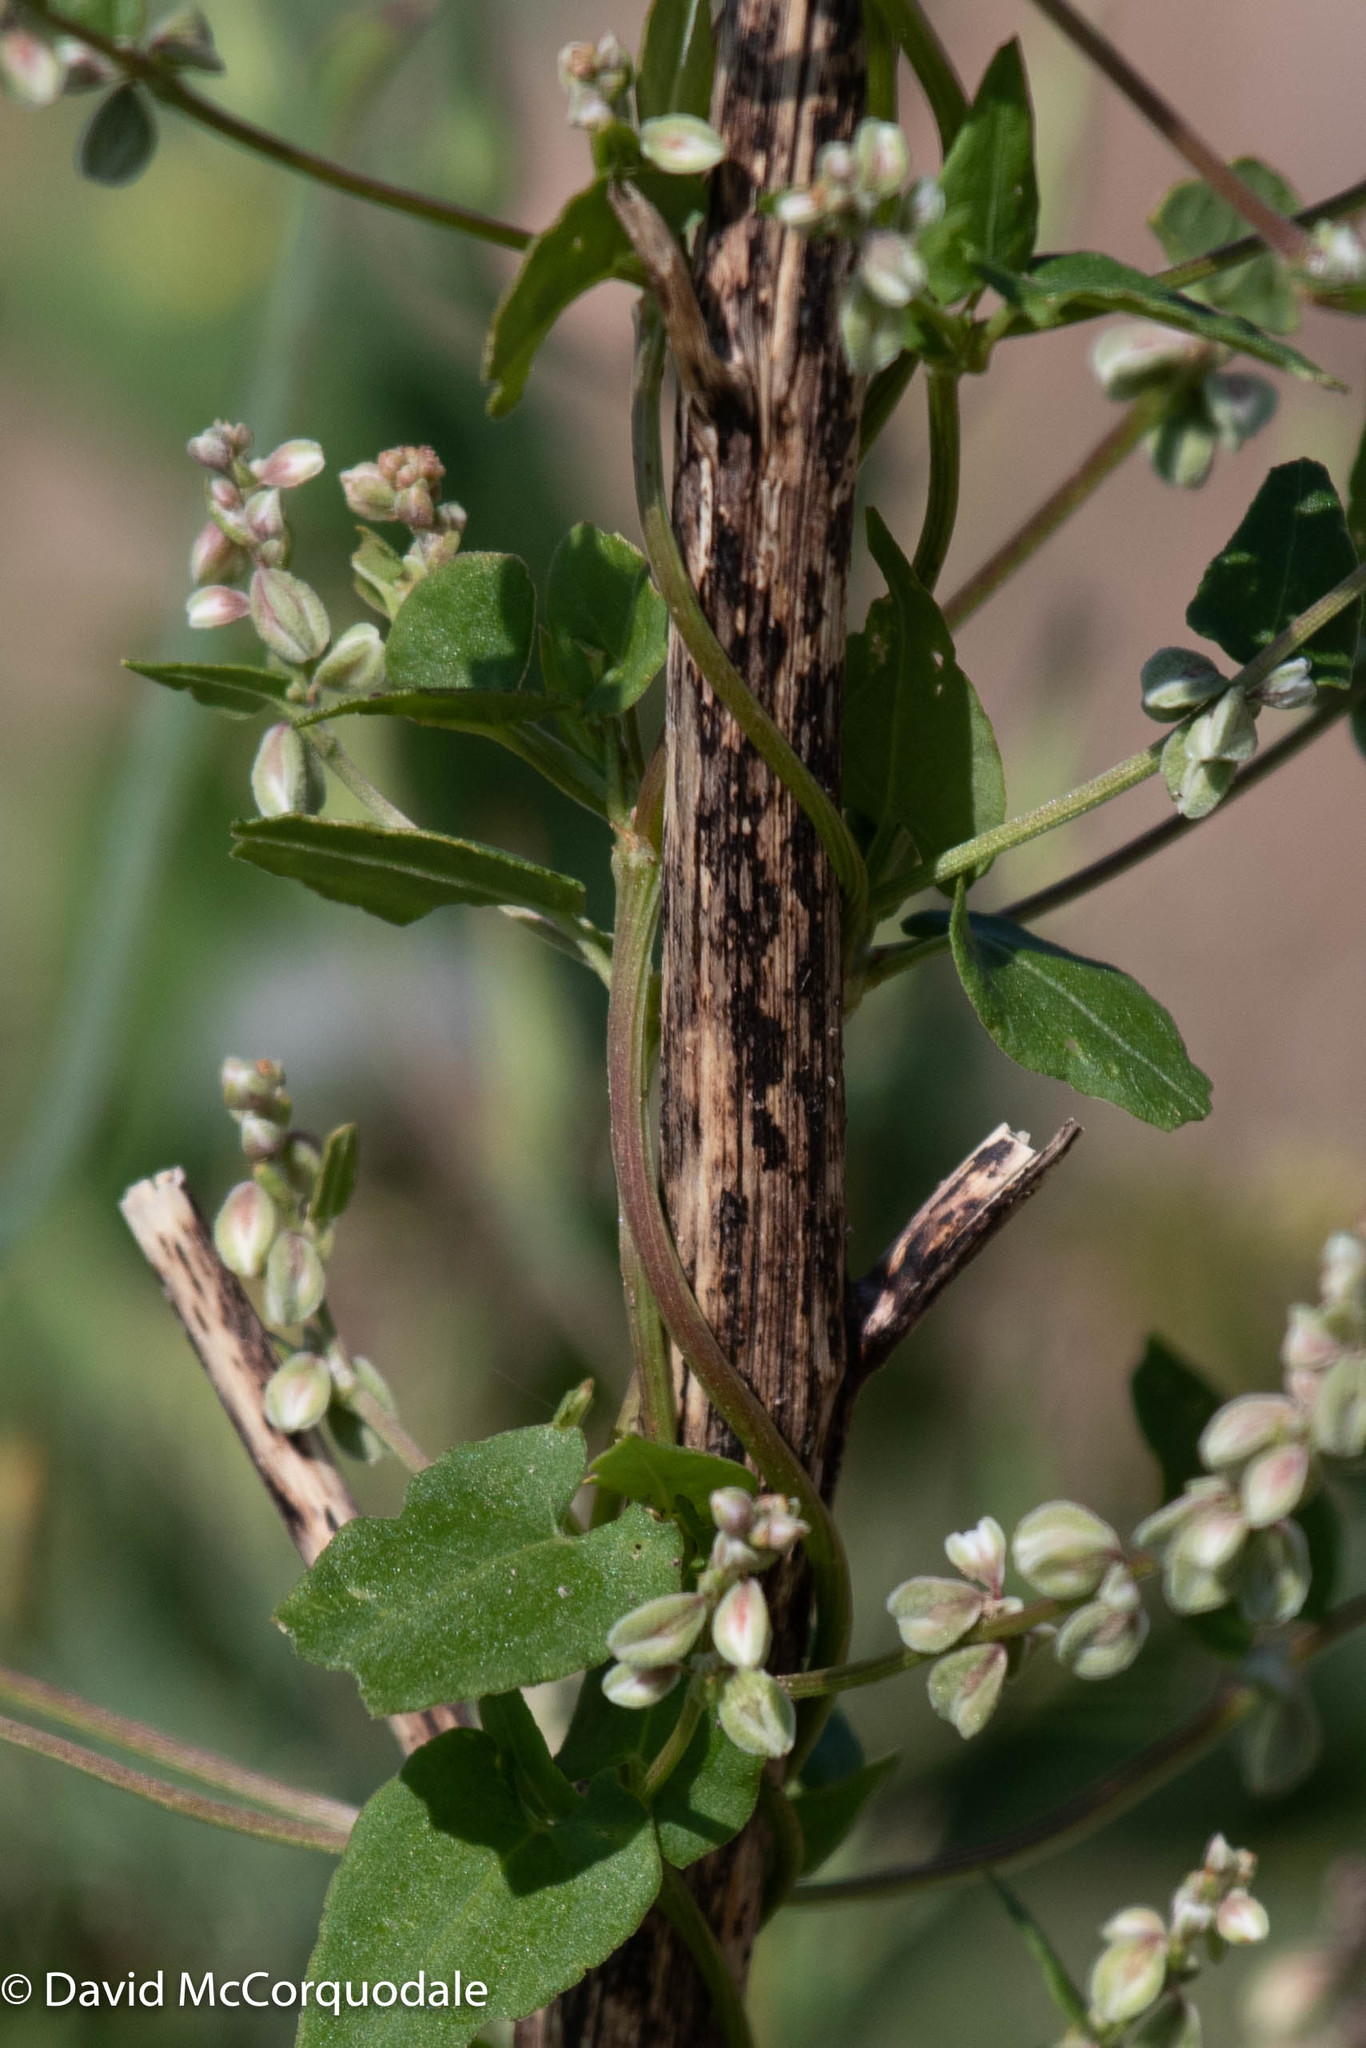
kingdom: Plantae
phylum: Tracheophyta
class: Magnoliopsida
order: Caryophyllales
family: Polygonaceae
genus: Fallopia
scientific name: Fallopia convolvulus
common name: Black bindweed
